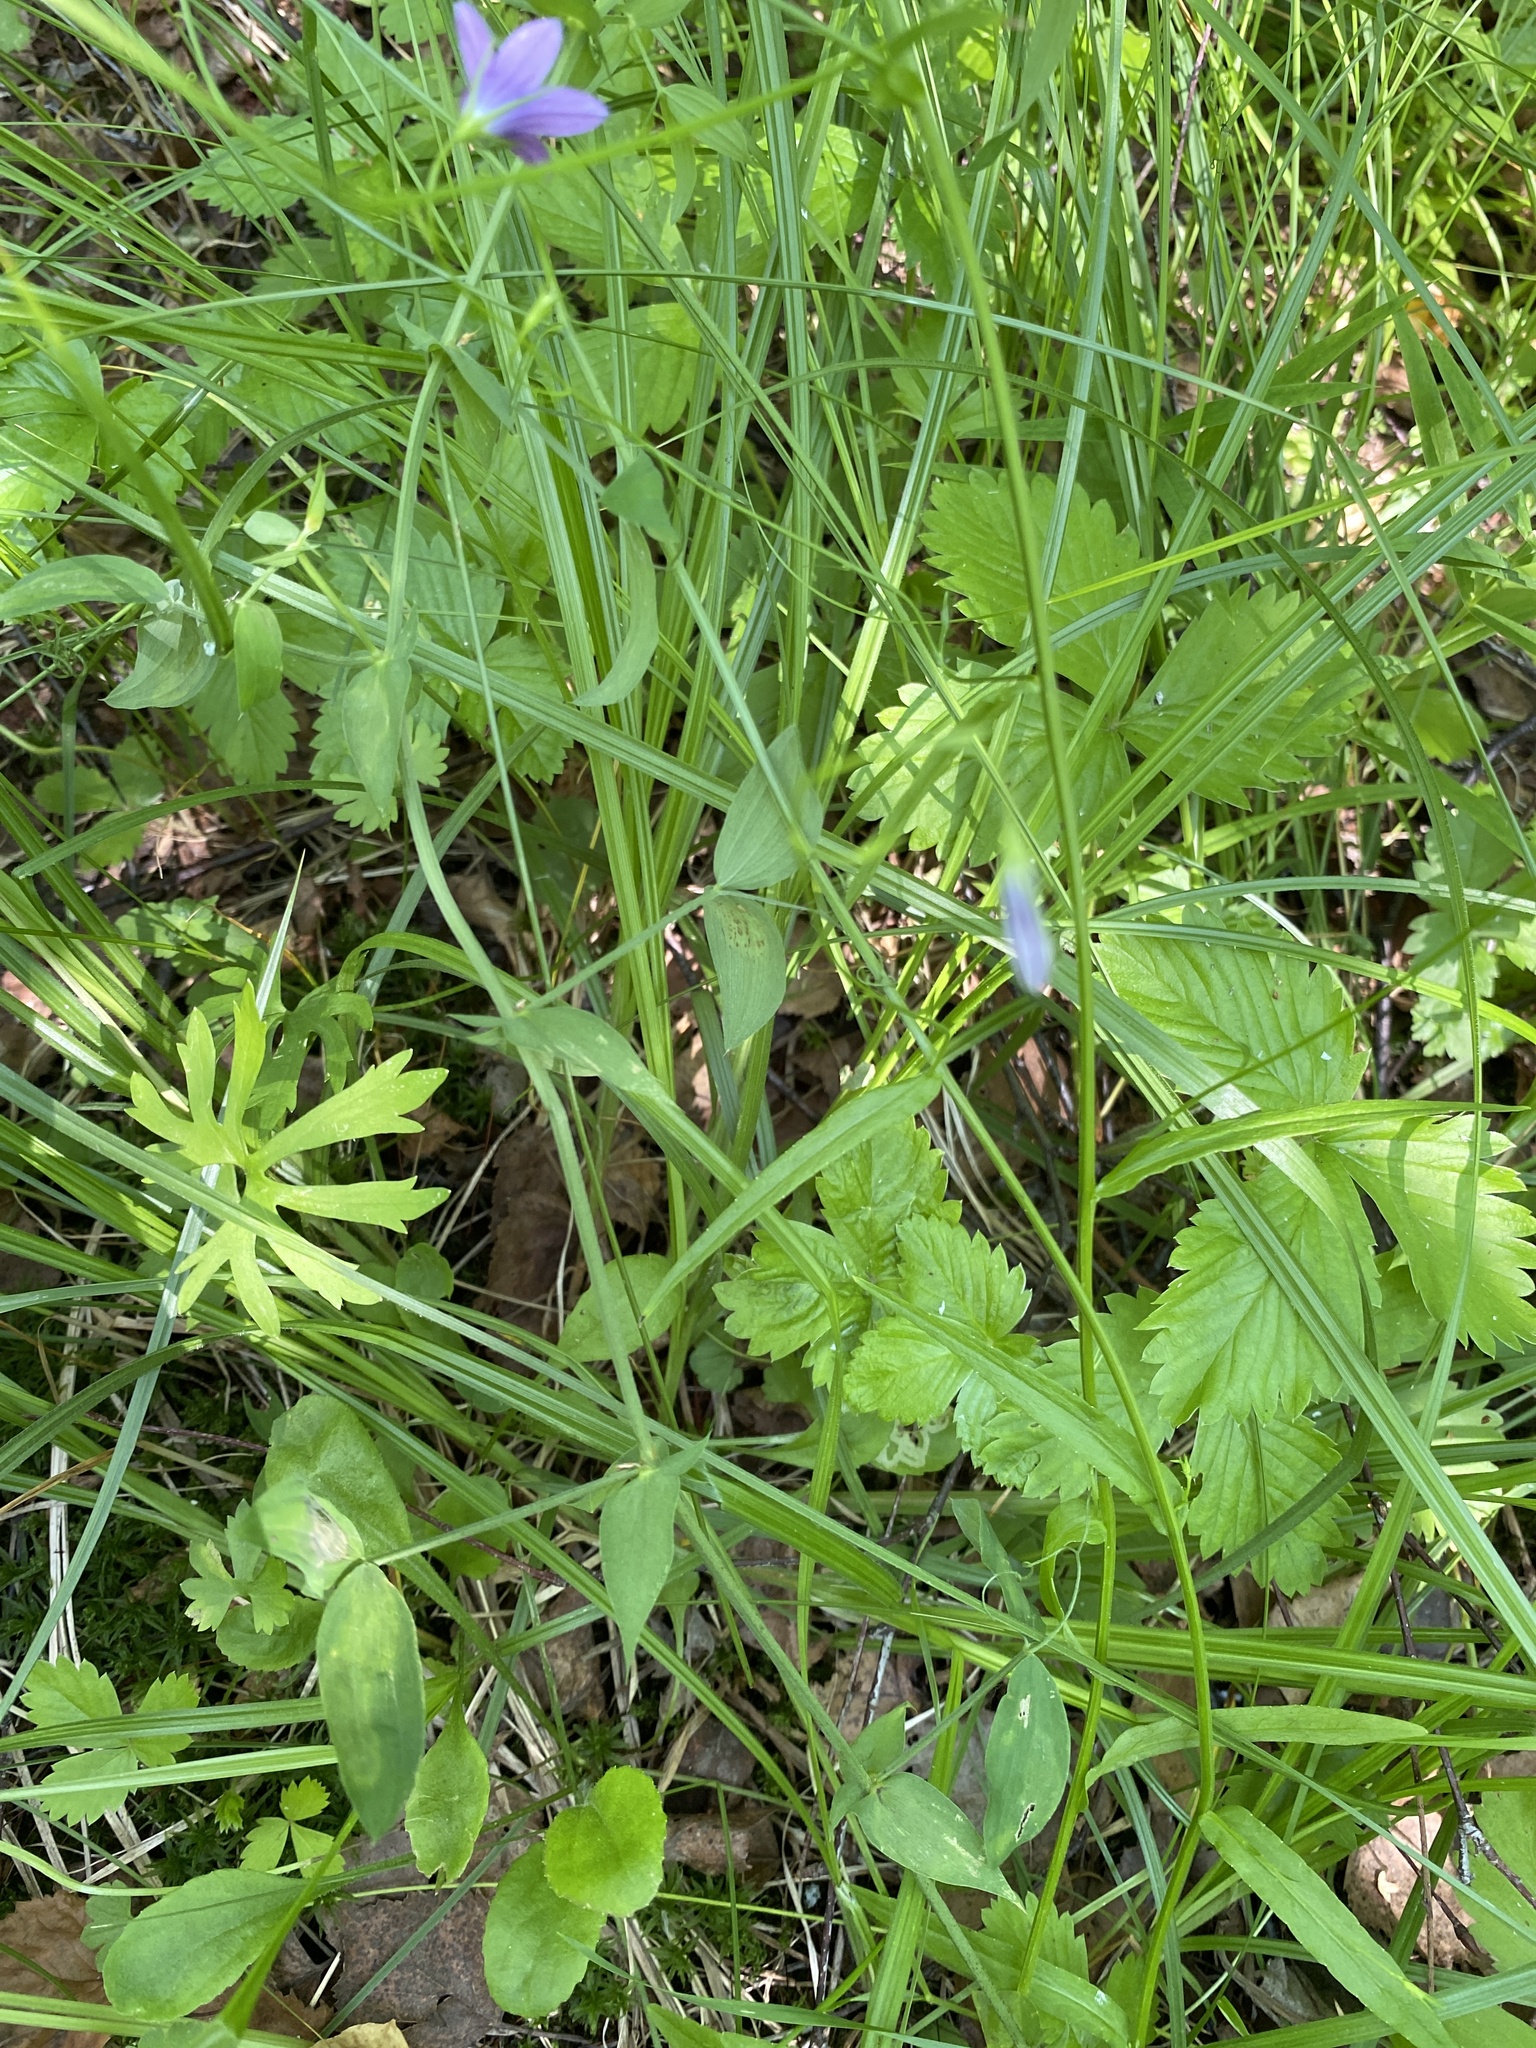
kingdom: Plantae
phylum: Tracheophyta
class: Magnoliopsida
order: Asterales
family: Campanulaceae
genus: Campanula
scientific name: Campanula patula
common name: Spreading bellflower
